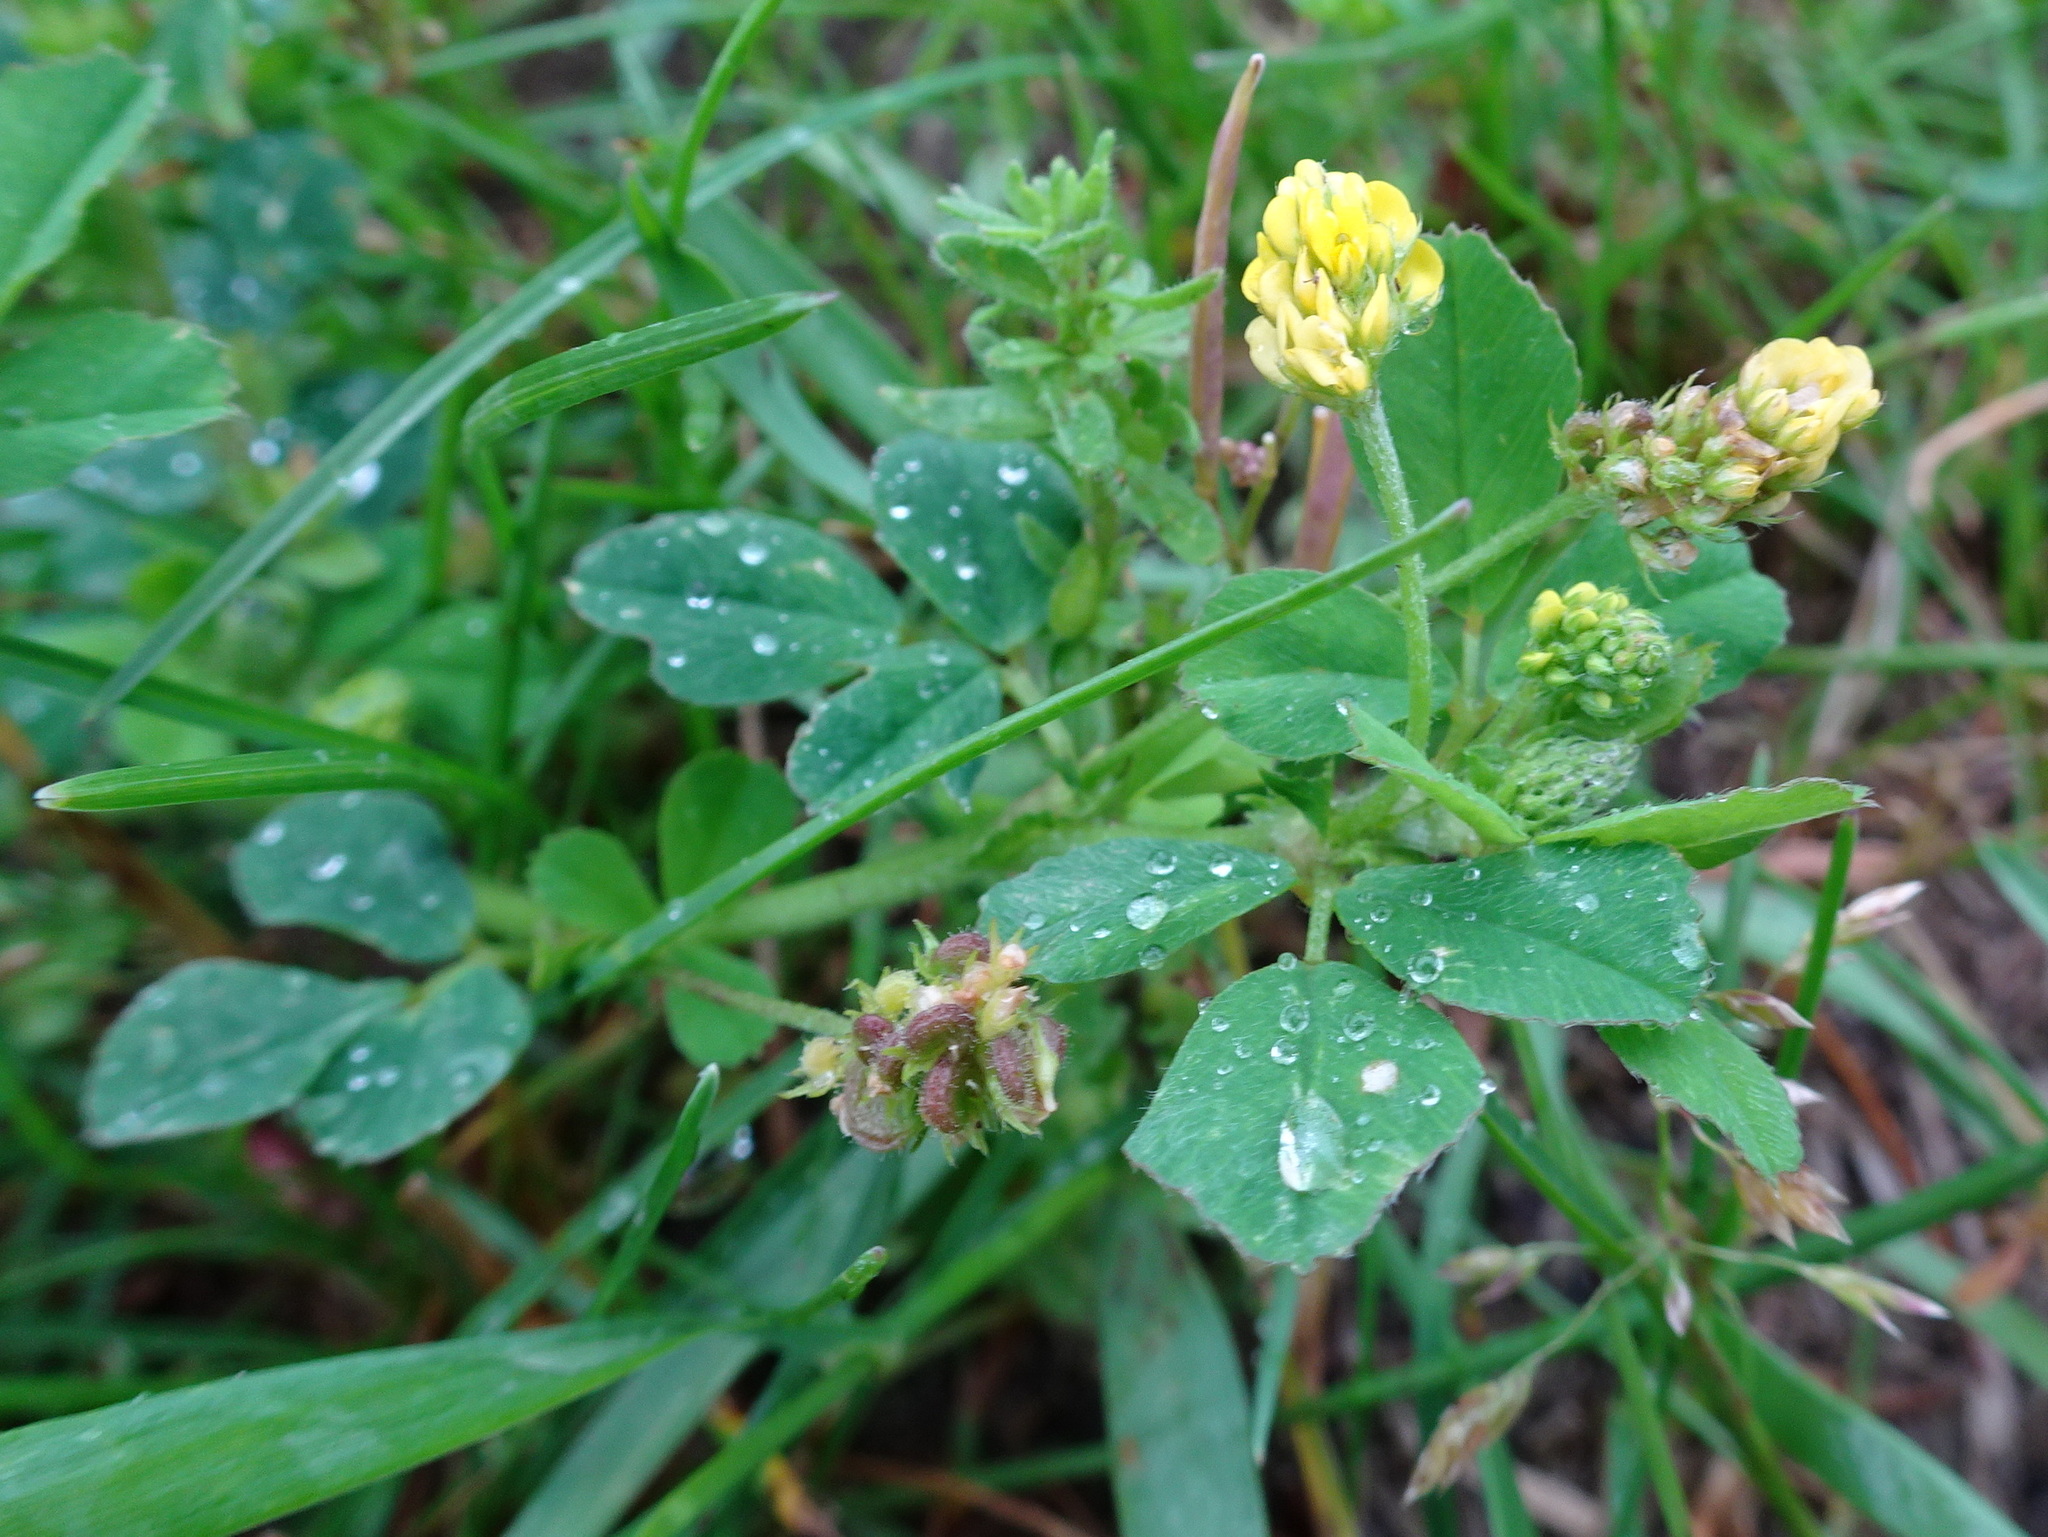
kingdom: Plantae
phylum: Tracheophyta
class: Magnoliopsida
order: Fabales
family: Fabaceae
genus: Medicago
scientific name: Medicago lupulina
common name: Black medick
